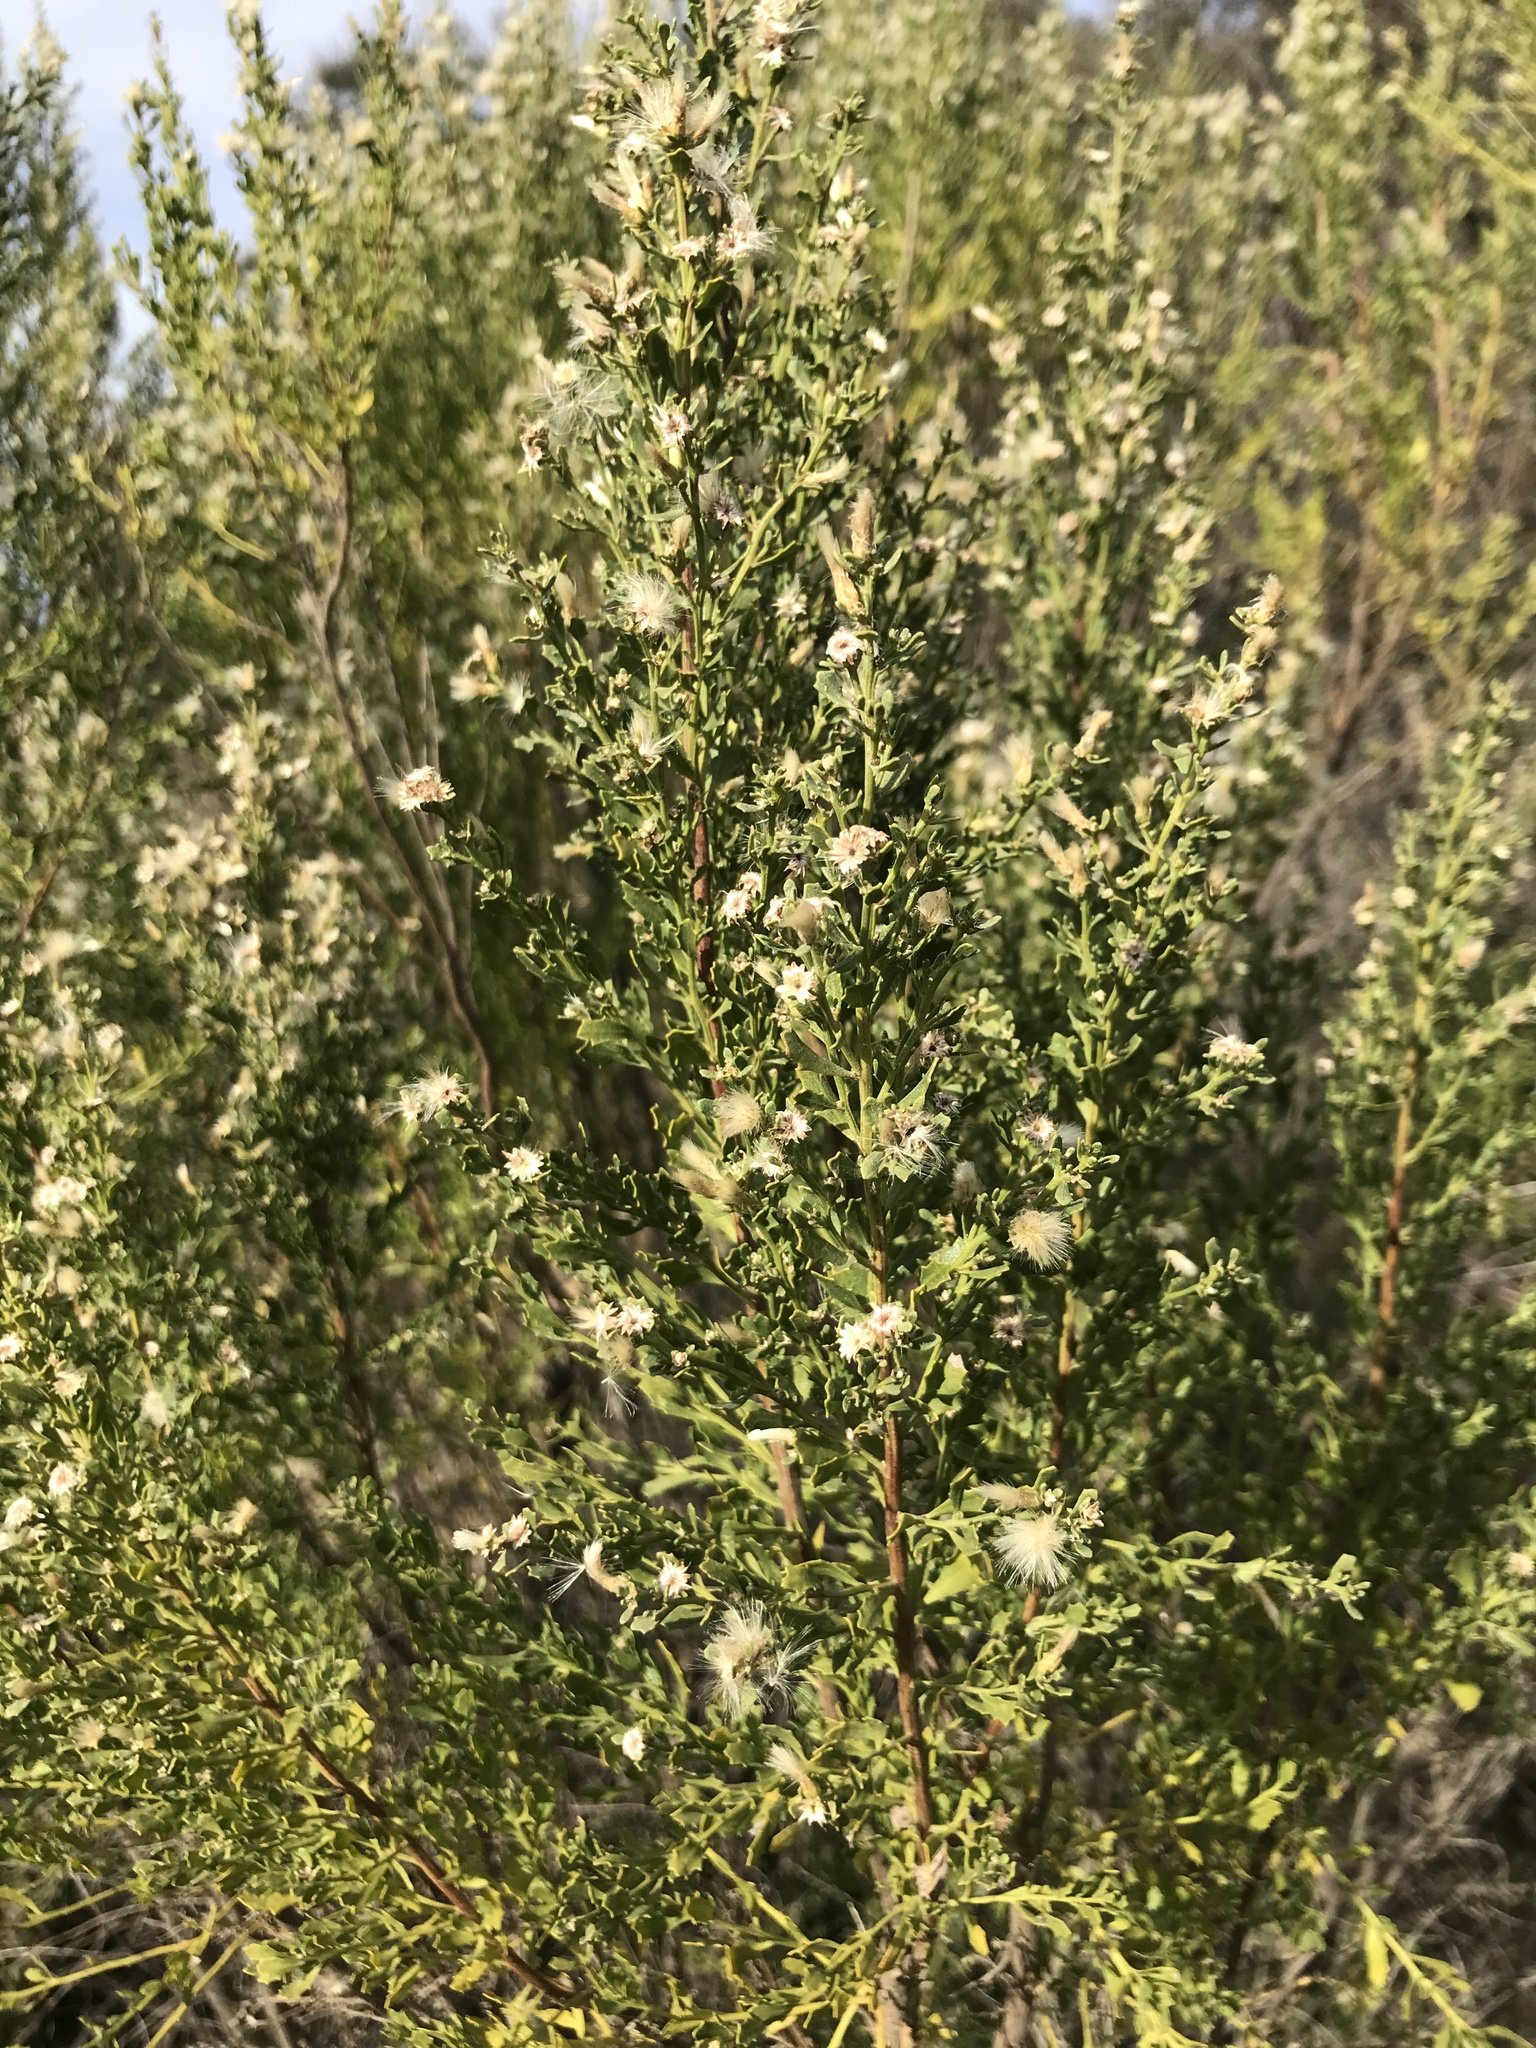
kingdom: Plantae
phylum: Tracheophyta
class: Magnoliopsida
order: Asterales
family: Asteraceae
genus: Baccharis
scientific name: Baccharis pilularis
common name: Coyotebrush
